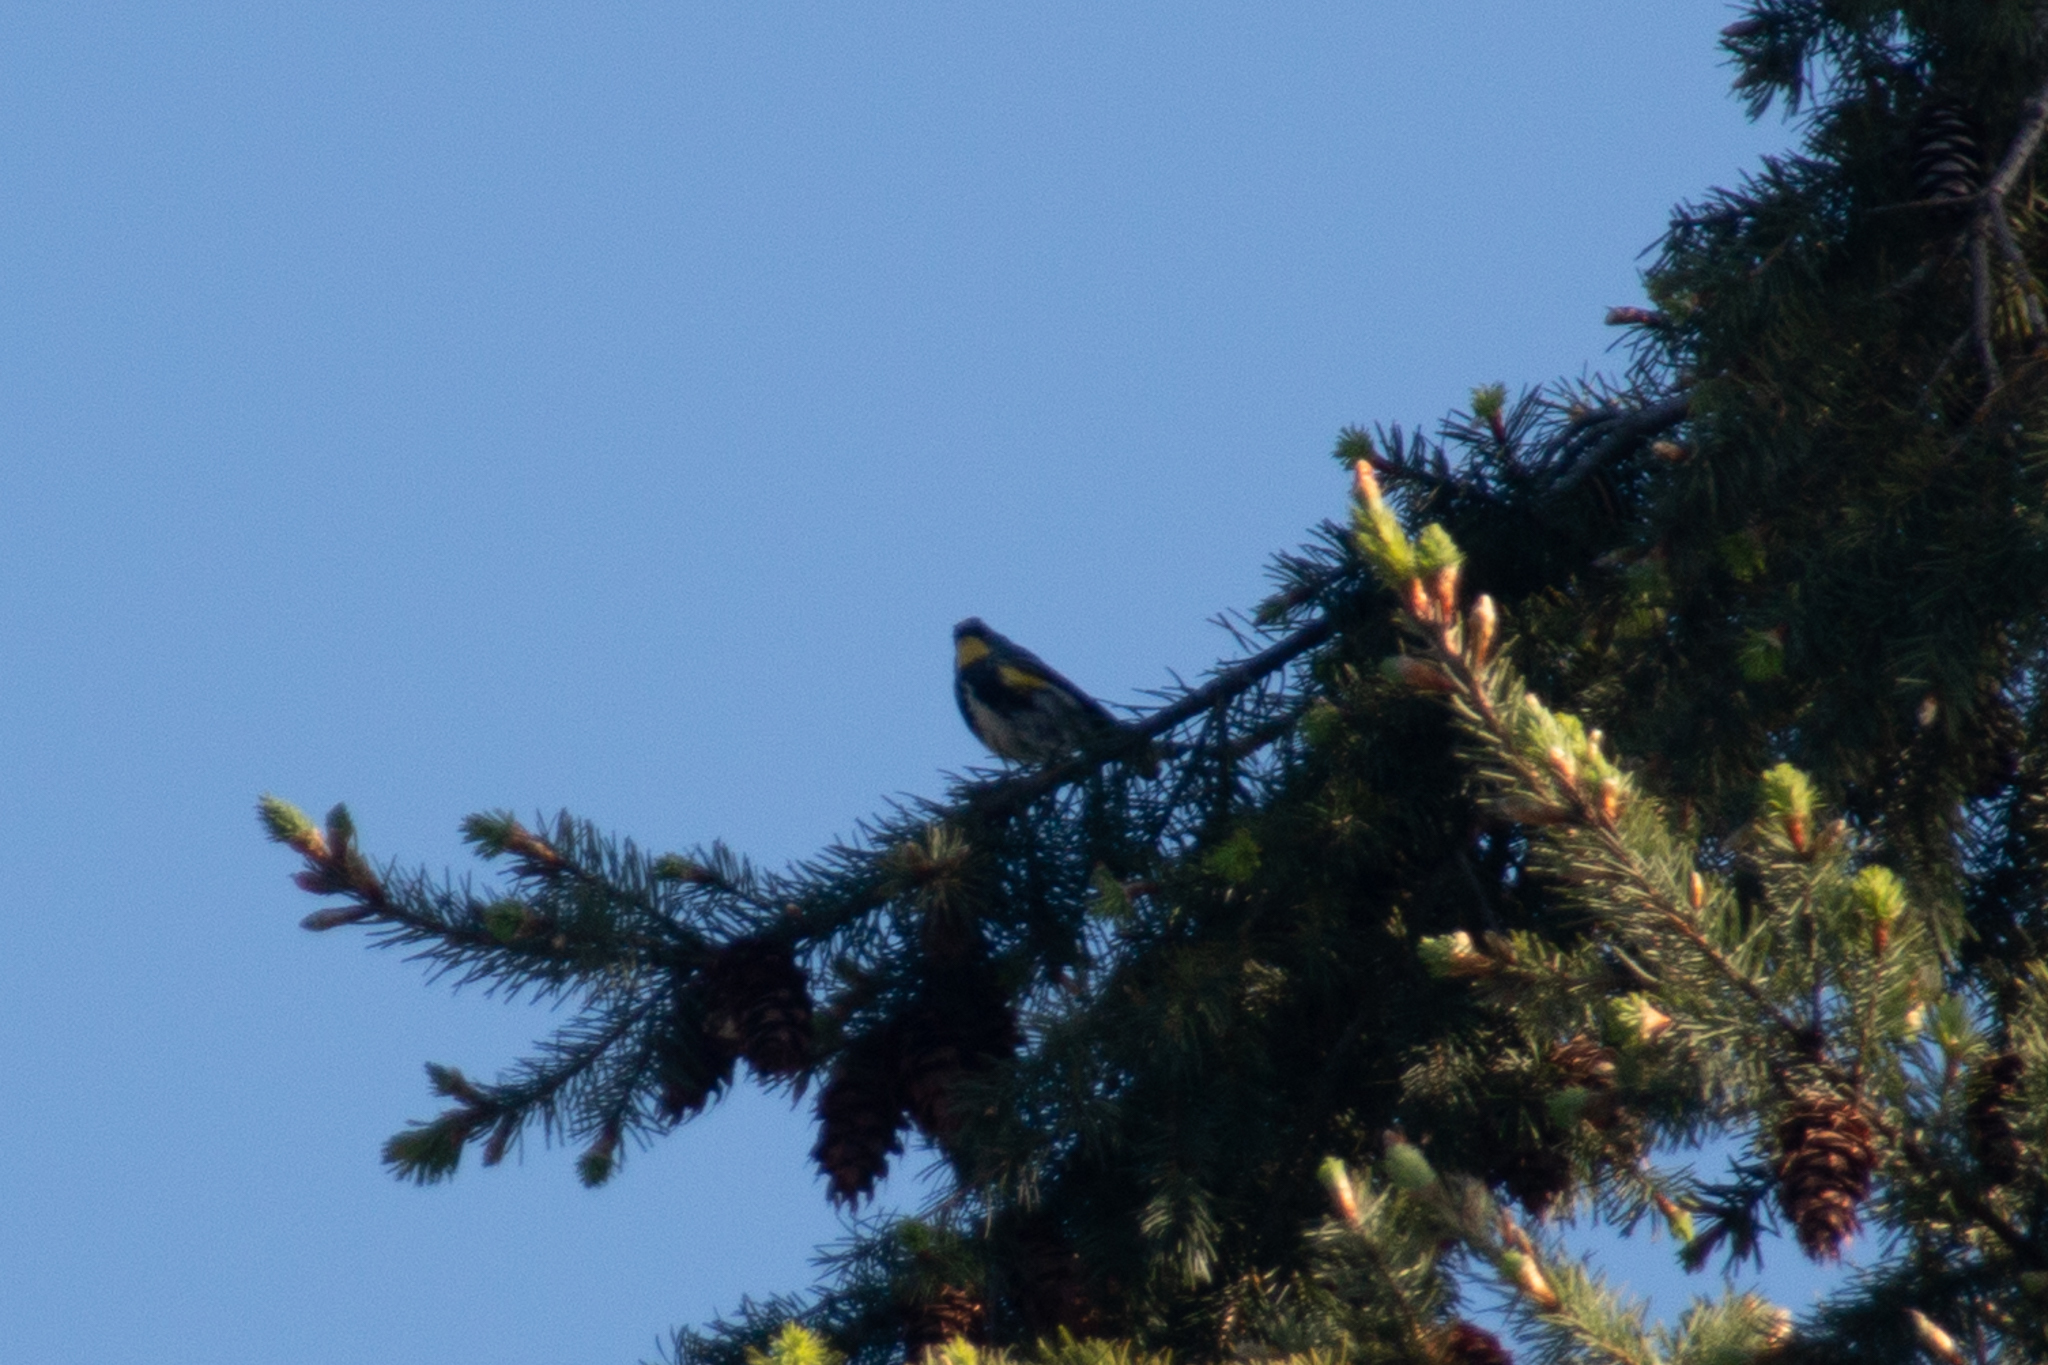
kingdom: Animalia
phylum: Chordata
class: Aves
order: Passeriformes
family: Parulidae
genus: Setophaga
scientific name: Setophaga coronata
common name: Myrtle warbler
